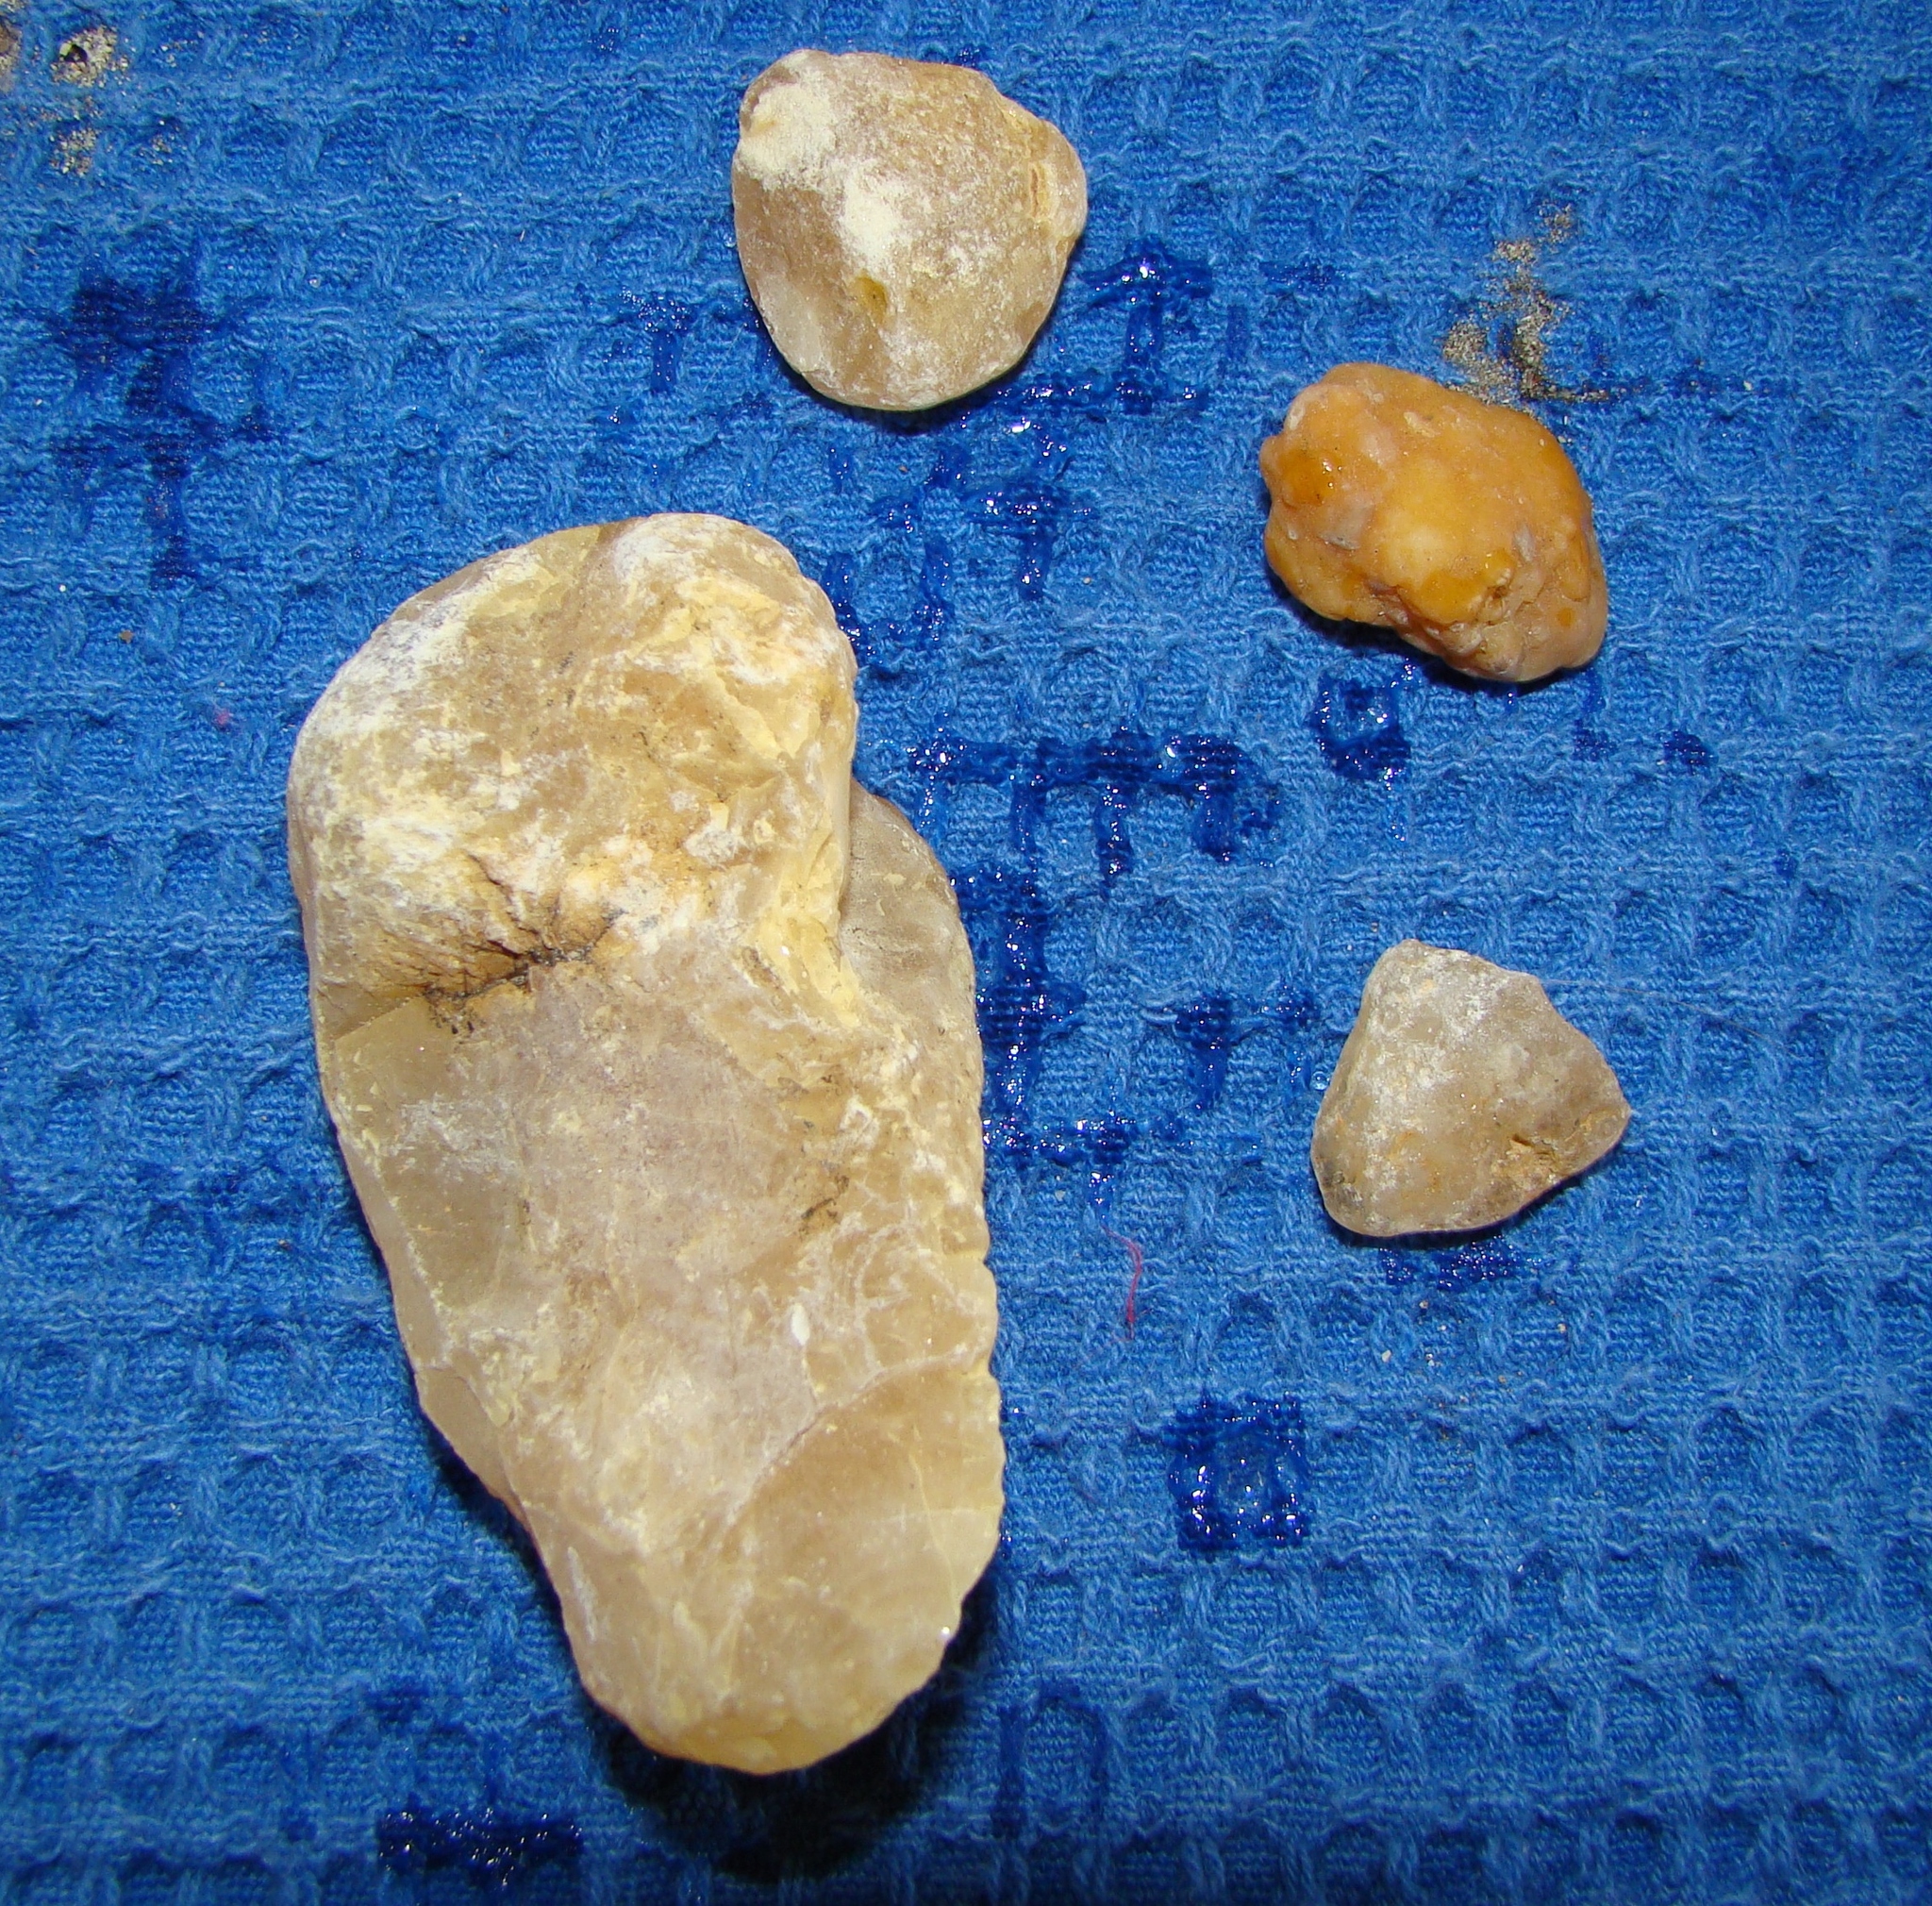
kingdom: Plantae
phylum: Tracheophyta
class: Pinopsida
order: Pinales
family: Araucariaceae
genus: Agathis
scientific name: Agathis australis
